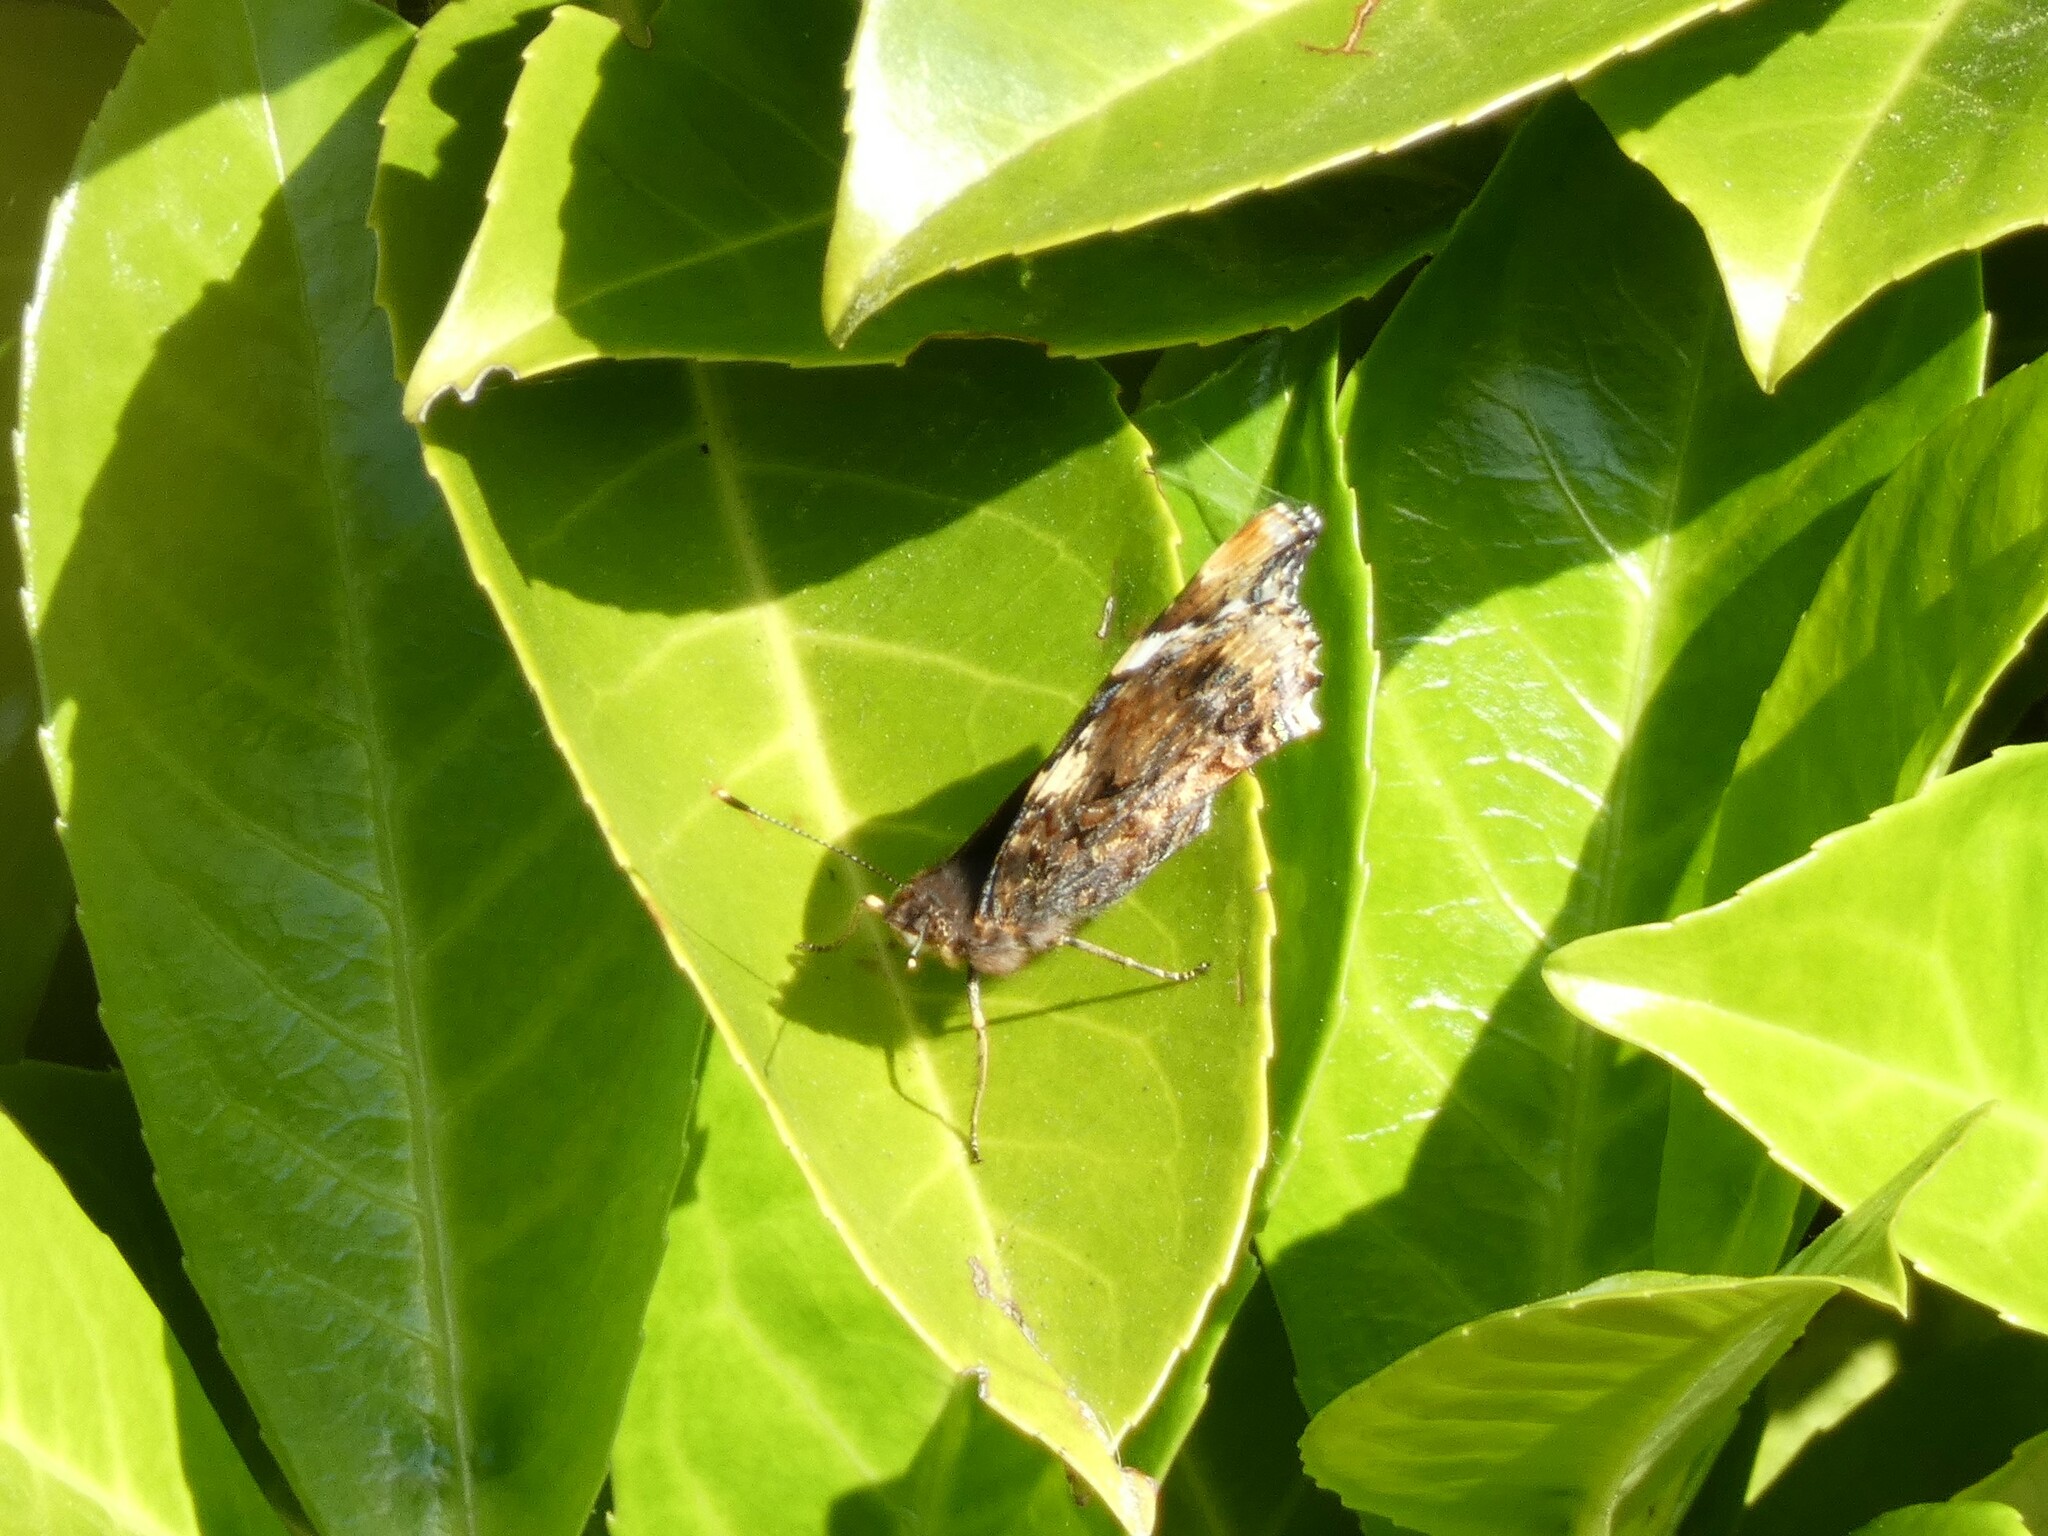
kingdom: Animalia
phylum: Arthropoda
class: Insecta
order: Lepidoptera
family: Nymphalidae
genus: Vanessa
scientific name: Vanessa atalanta
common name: Red admiral
